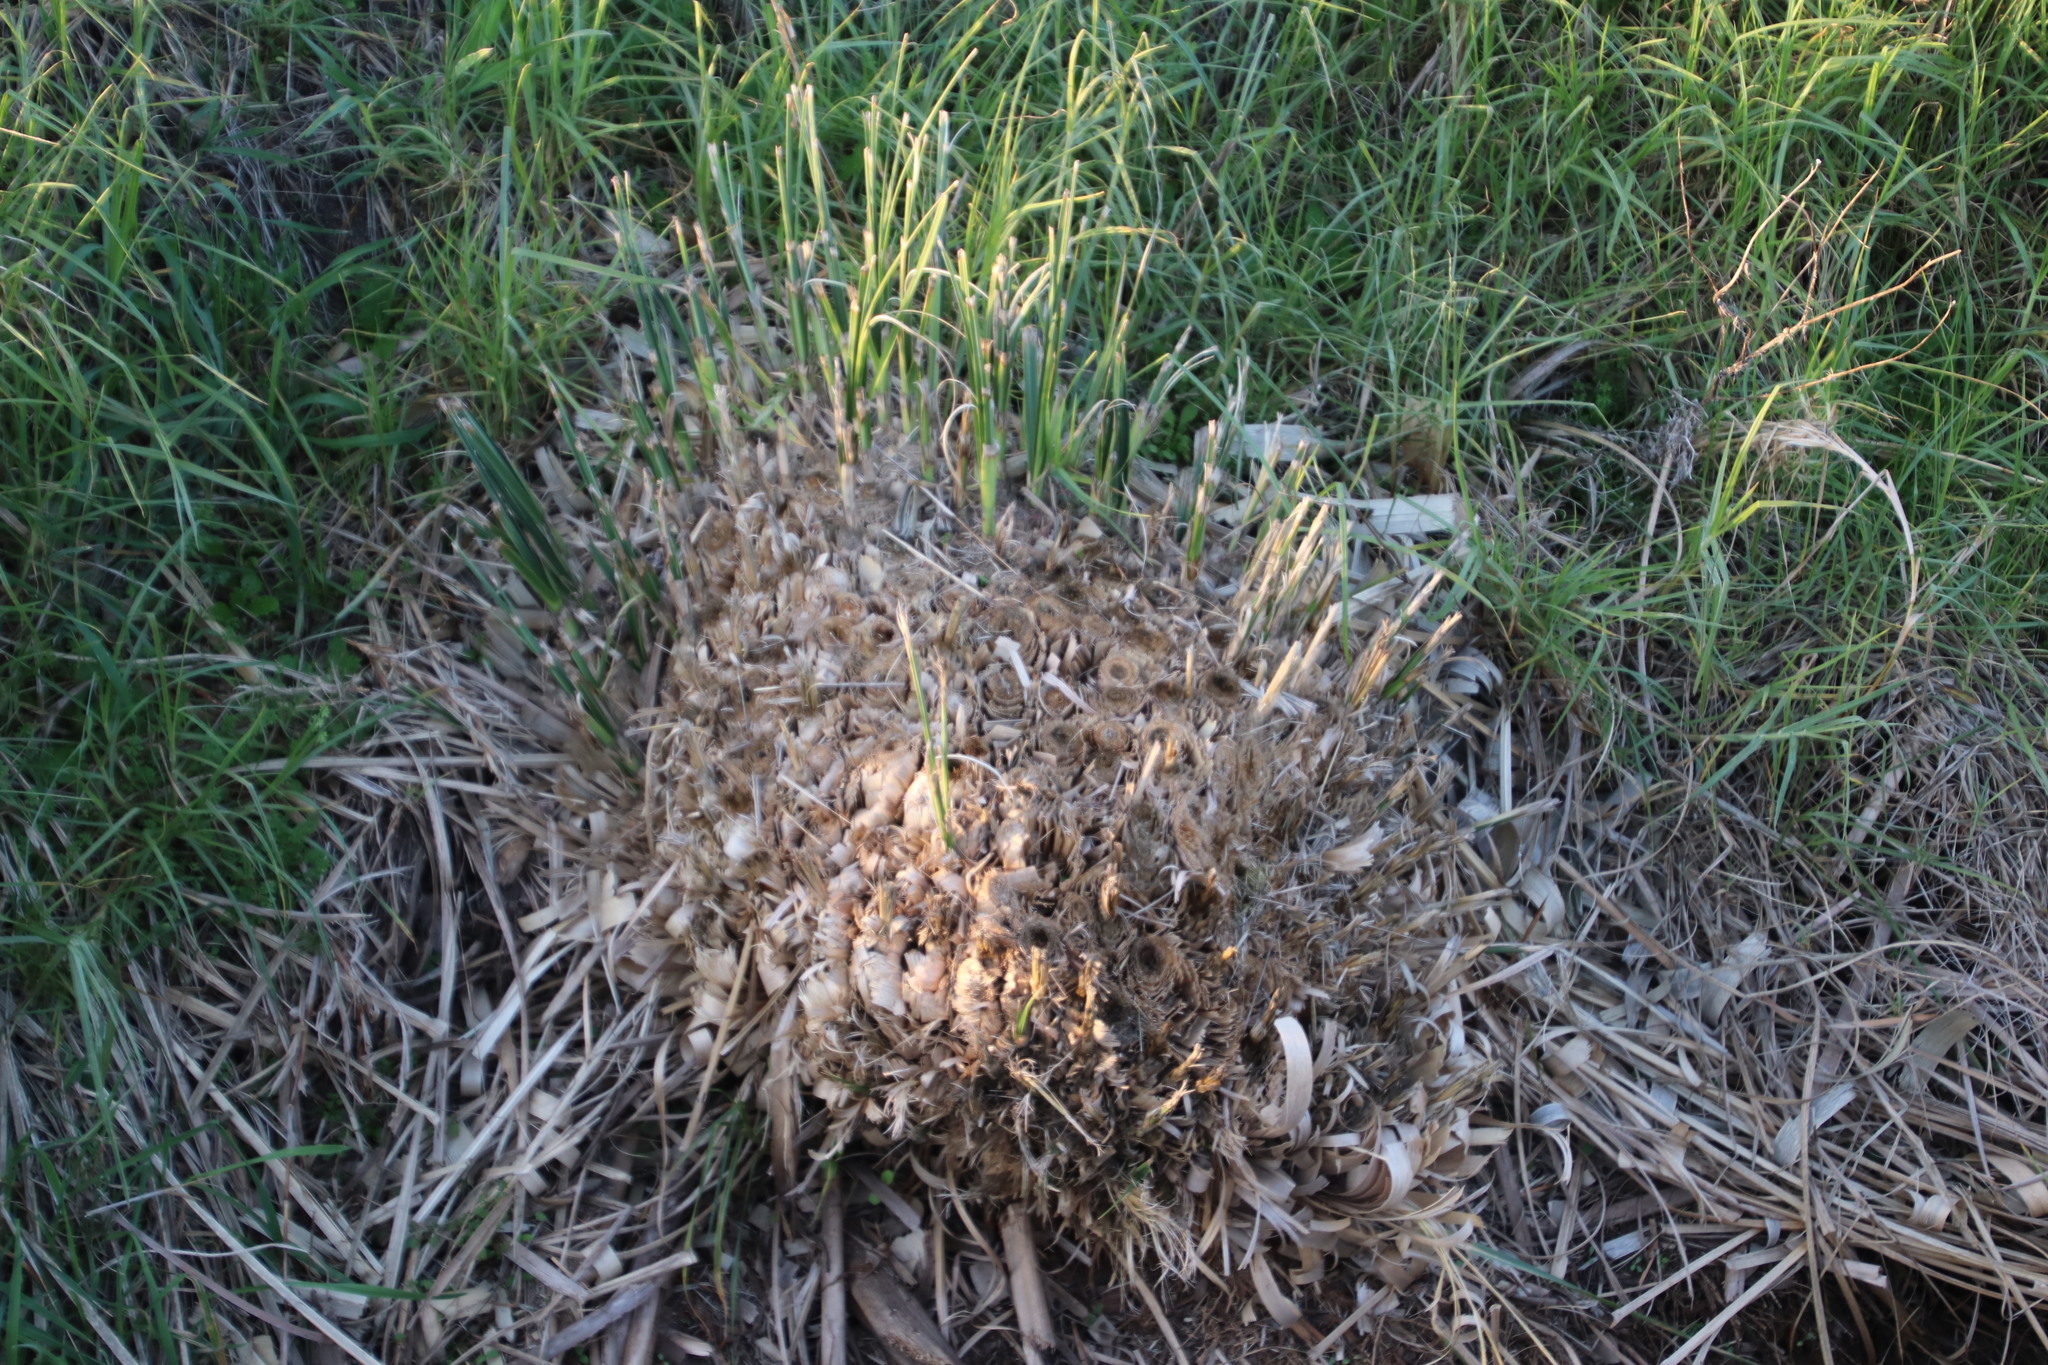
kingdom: Plantae
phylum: Tracheophyta
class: Liliopsida
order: Poales
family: Poaceae
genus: Cortaderia
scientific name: Cortaderia selloana
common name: Uruguayan pampas grass
